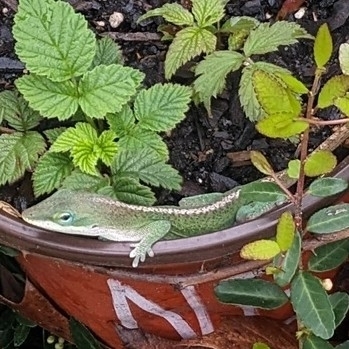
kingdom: Animalia
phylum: Chordata
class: Squamata
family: Dactyloidae
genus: Anolis
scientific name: Anolis carolinensis
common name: Green anole
